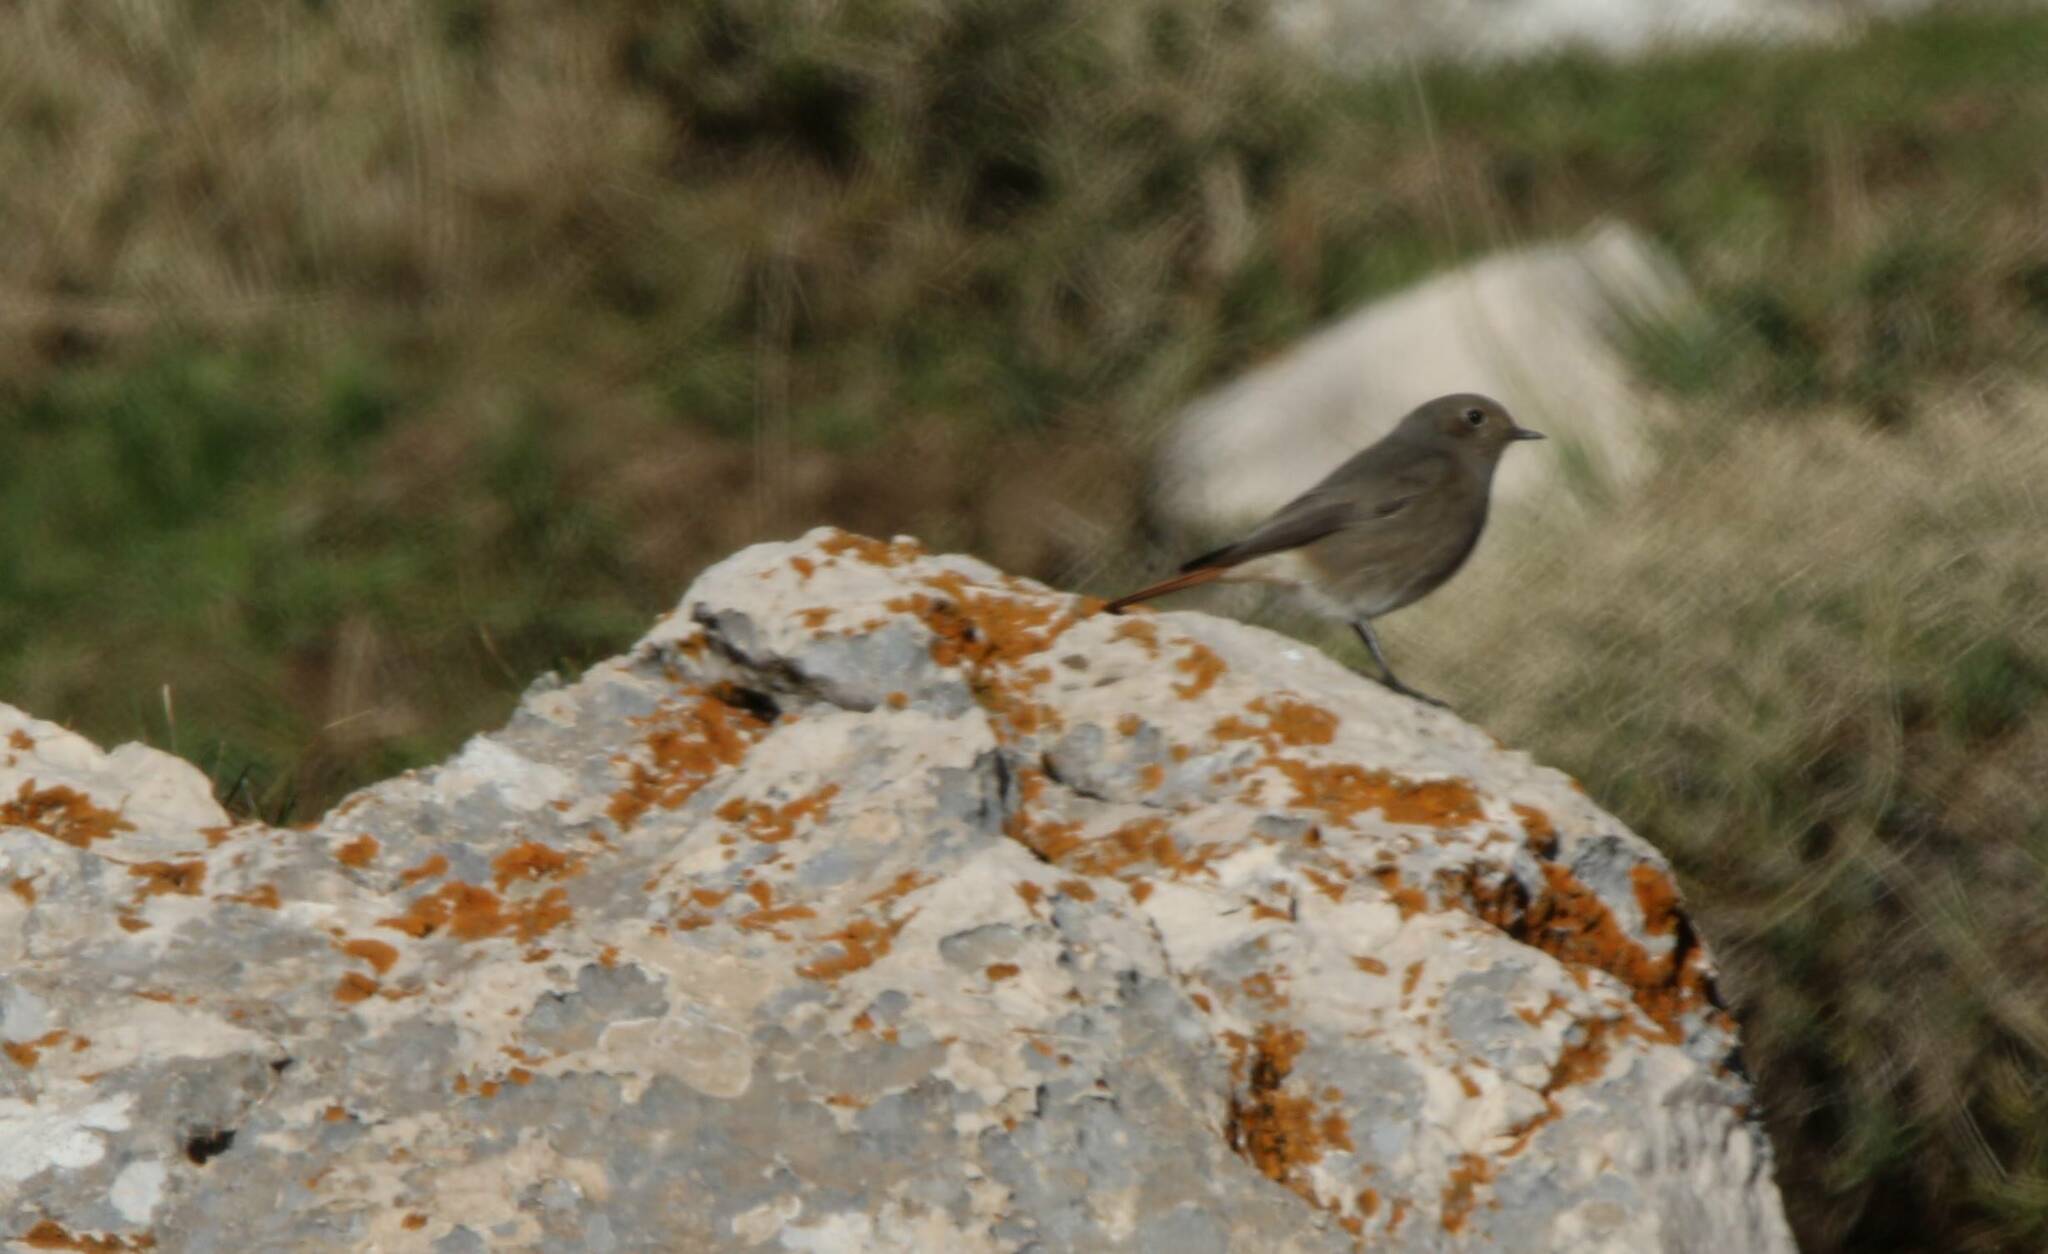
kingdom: Animalia
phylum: Chordata
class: Aves
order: Passeriformes
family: Muscicapidae
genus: Phoenicurus
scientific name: Phoenicurus ochruros
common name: Black redstart
